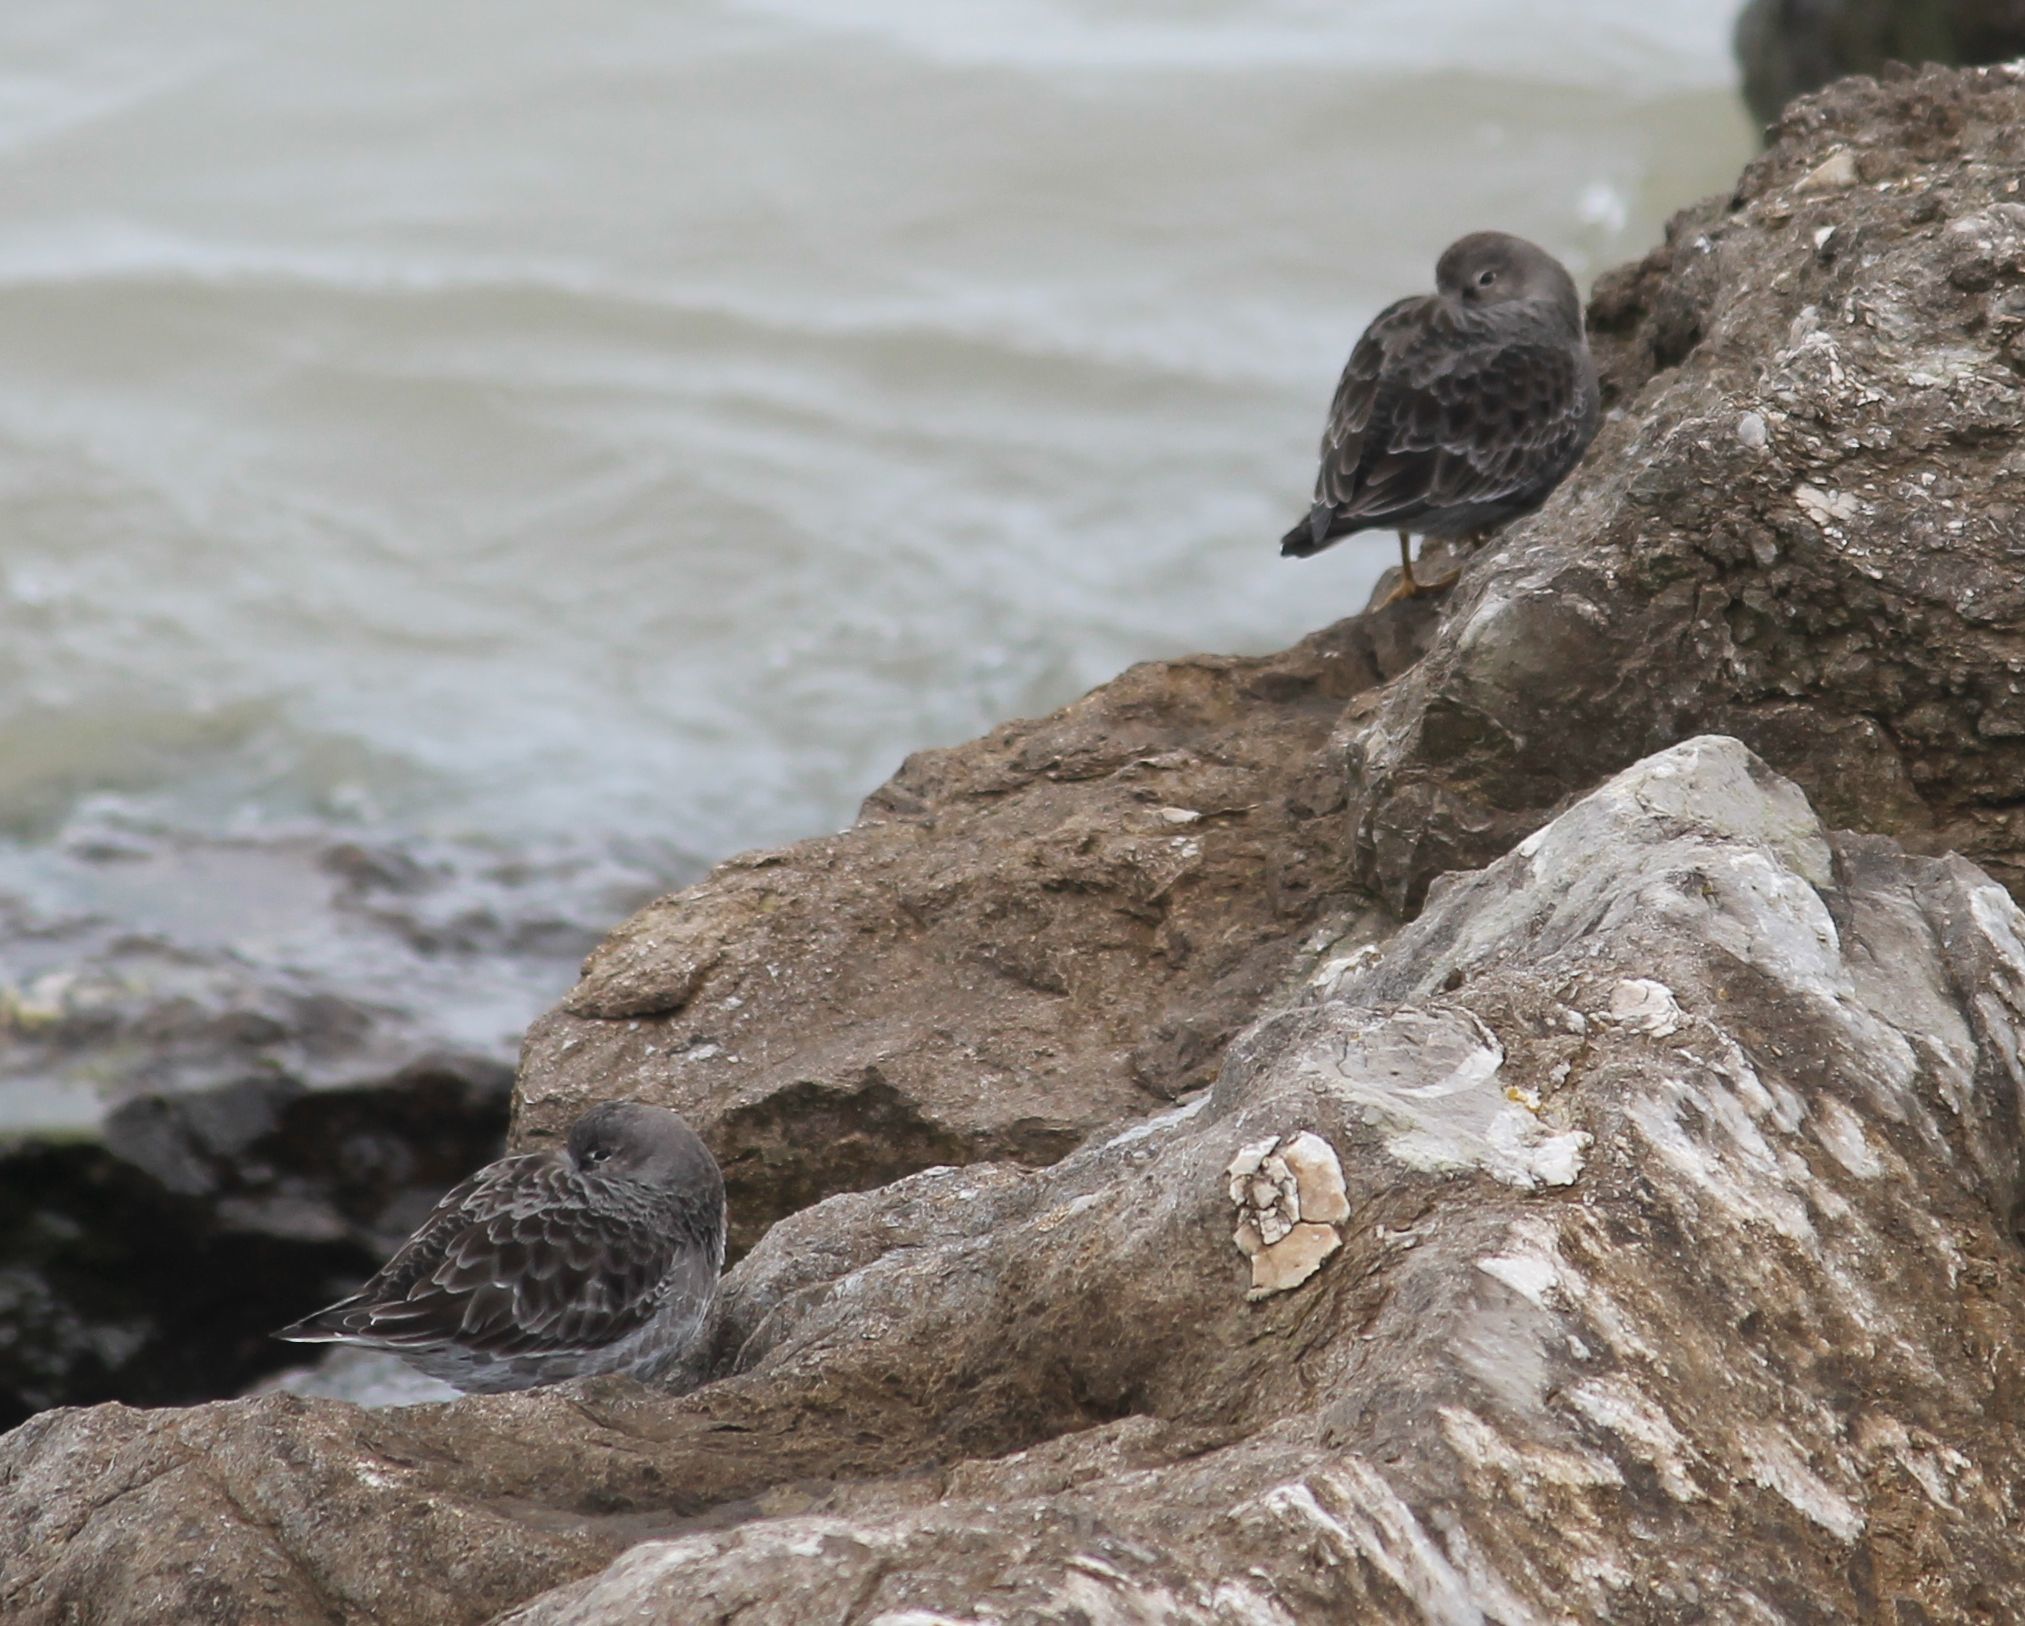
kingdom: Animalia
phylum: Chordata
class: Aves
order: Charadriiformes
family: Scolopacidae
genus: Calidris
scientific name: Calidris maritima
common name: Purple sandpiper
